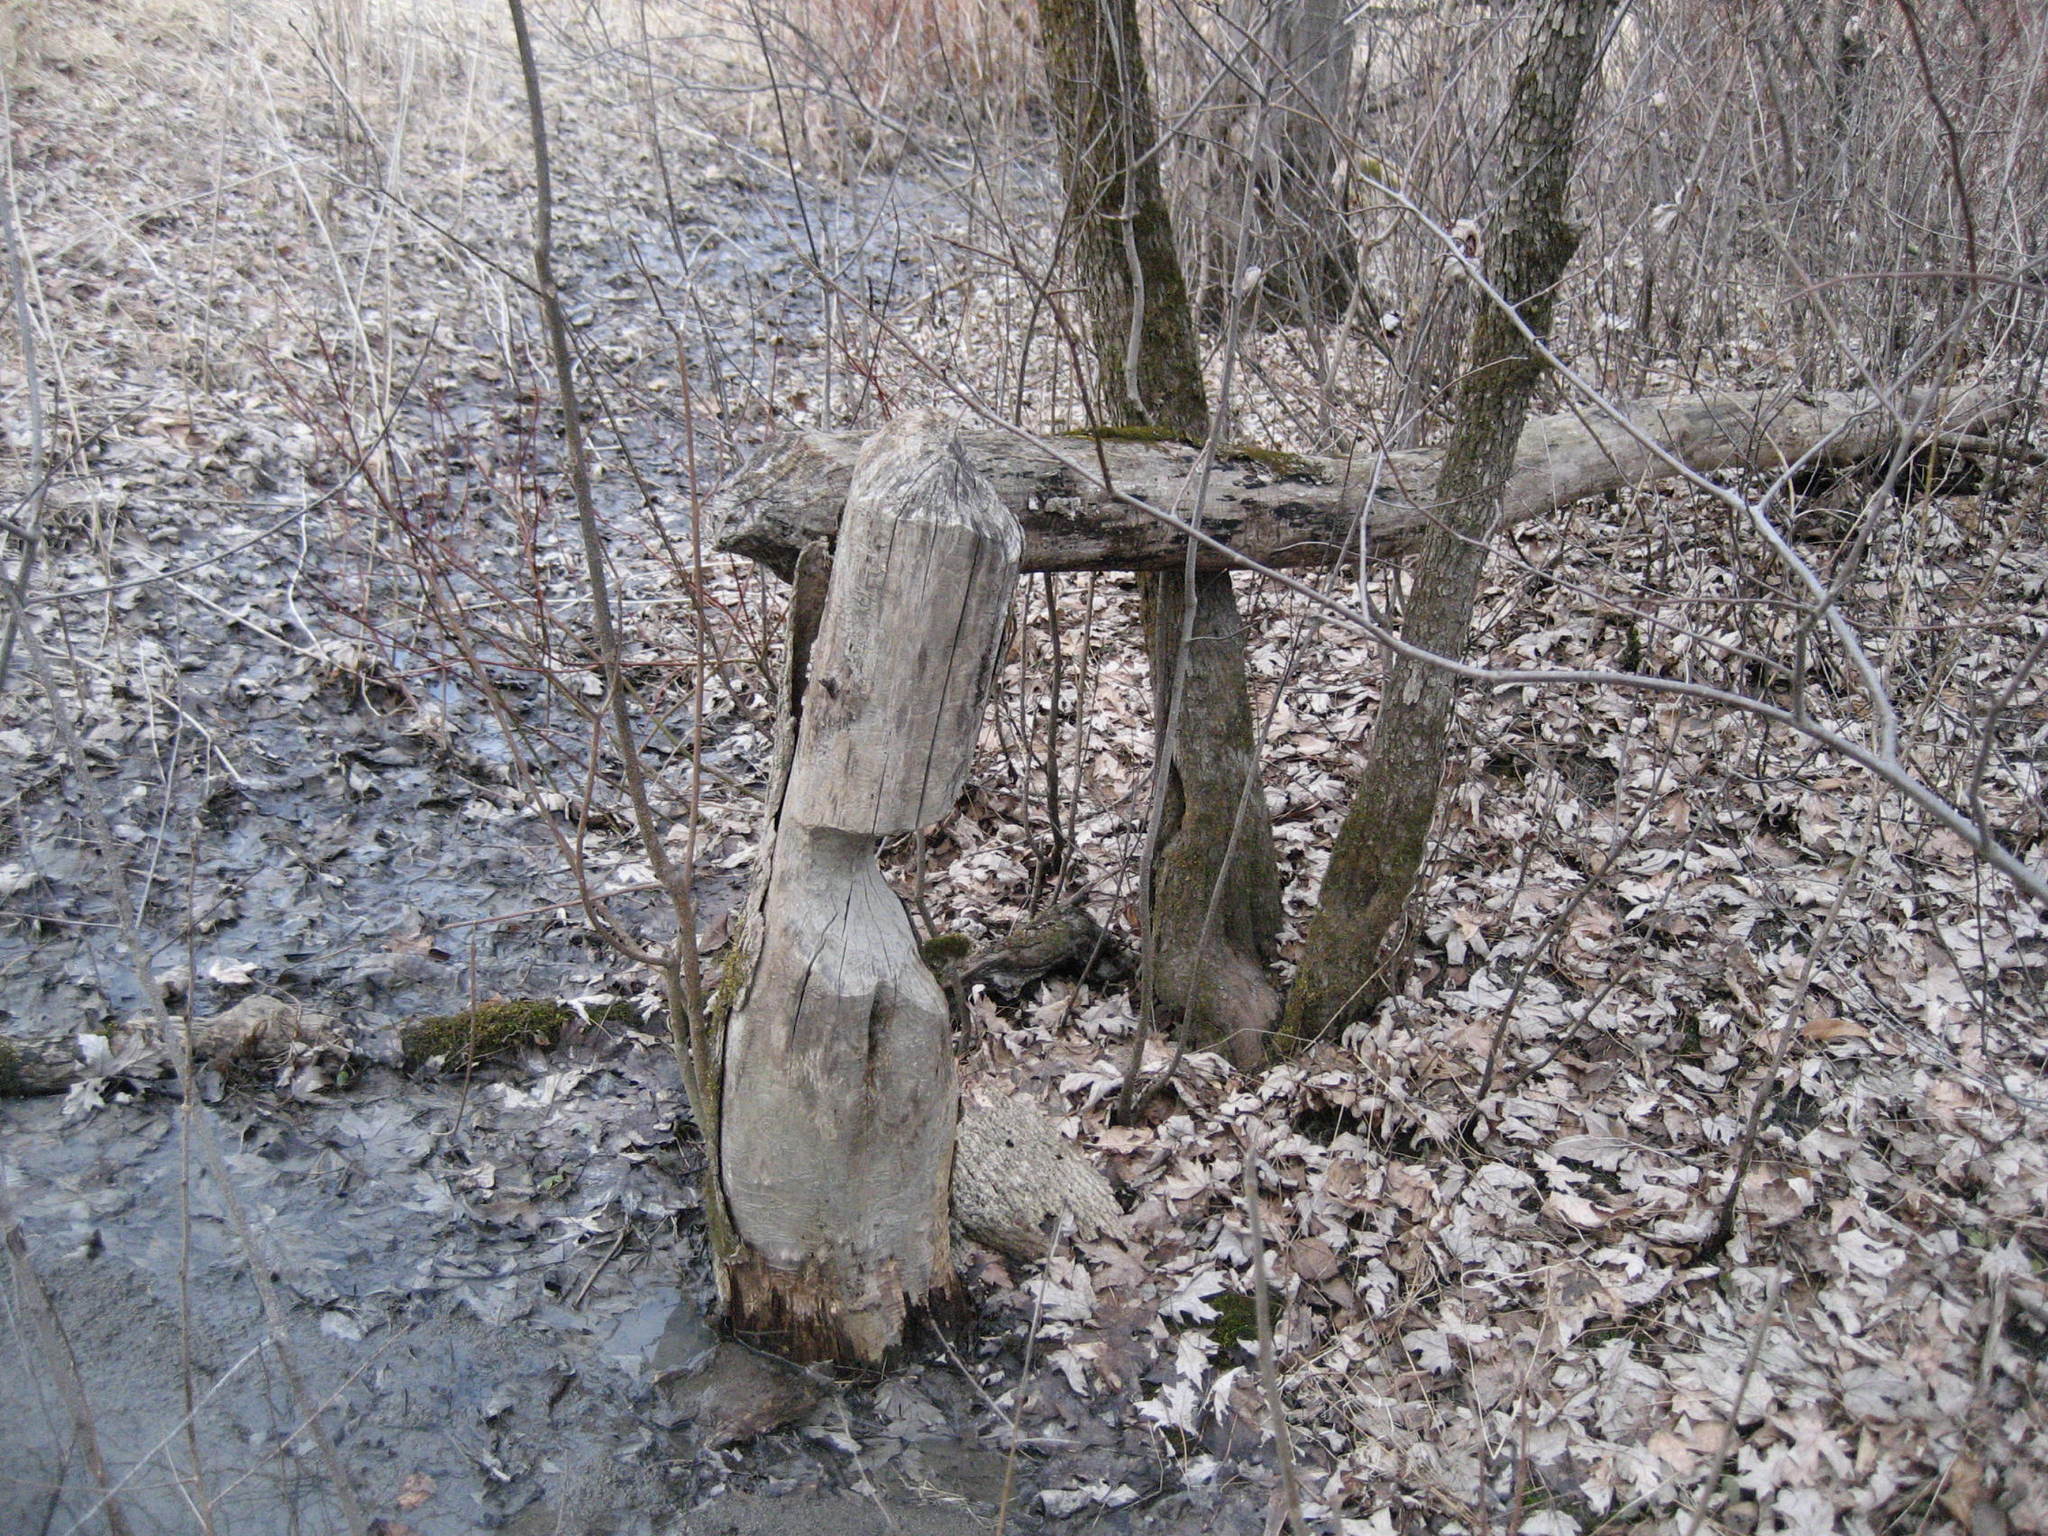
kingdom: Animalia
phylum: Chordata
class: Mammalia
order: Rodentia
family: Castoridae
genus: Castor
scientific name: Castor canadensis
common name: American beaver
